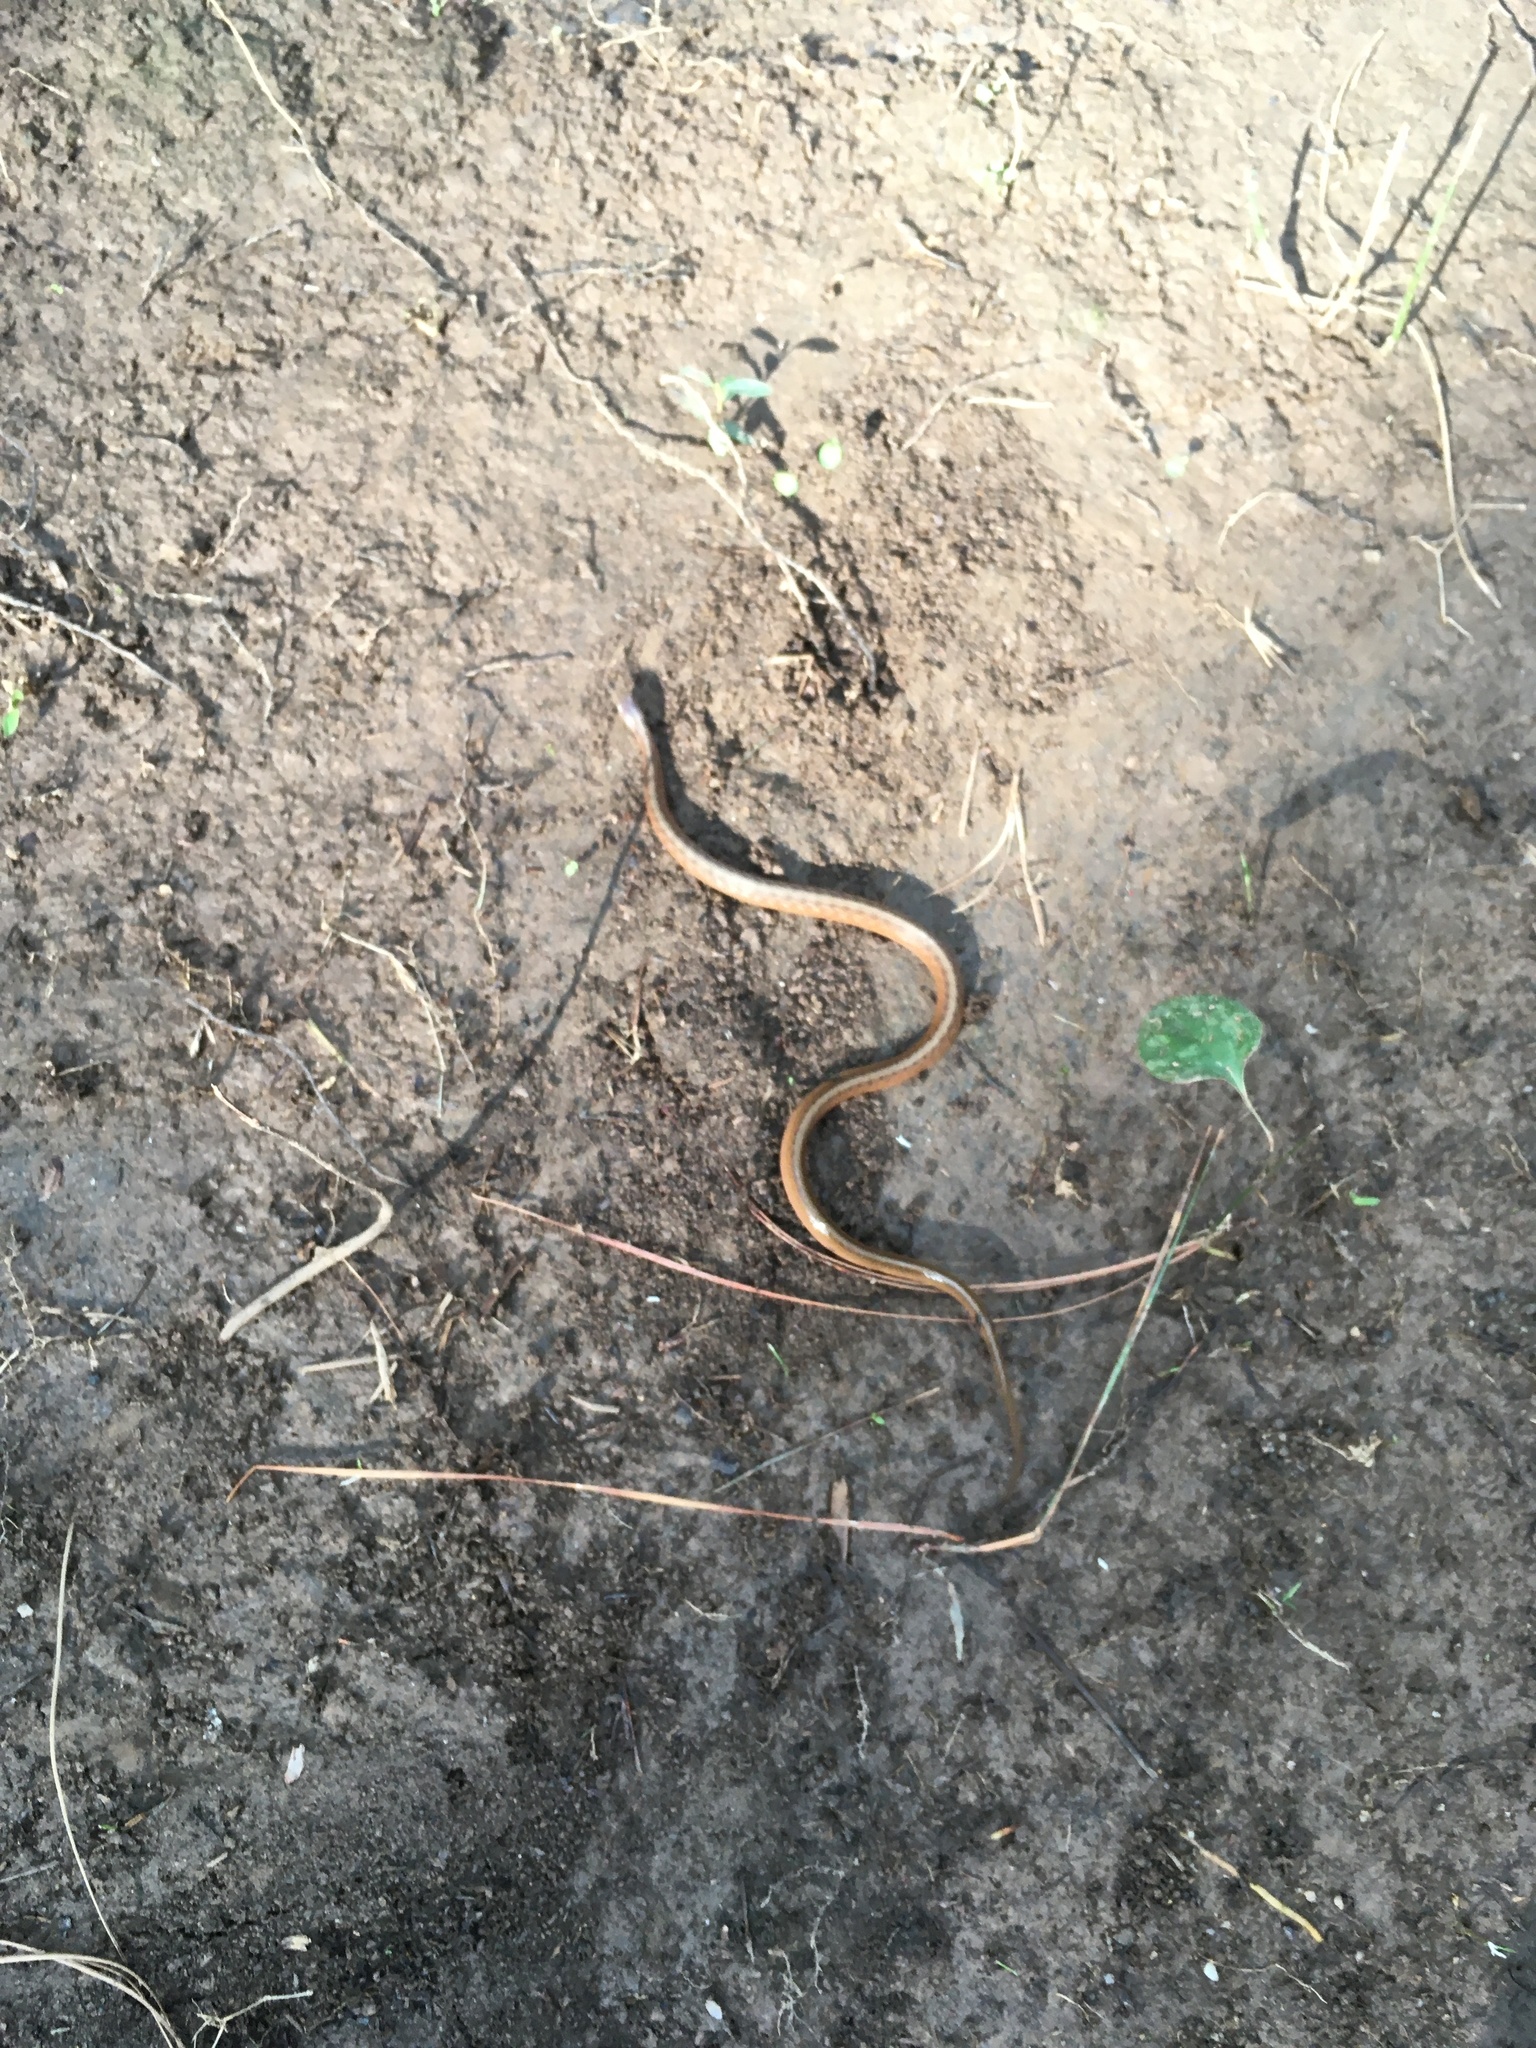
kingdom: Animalia
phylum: Chordata
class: Squamata
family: Colubridae
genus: Storeria
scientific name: Storeria dekayi
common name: (dekay’s) brown snake
